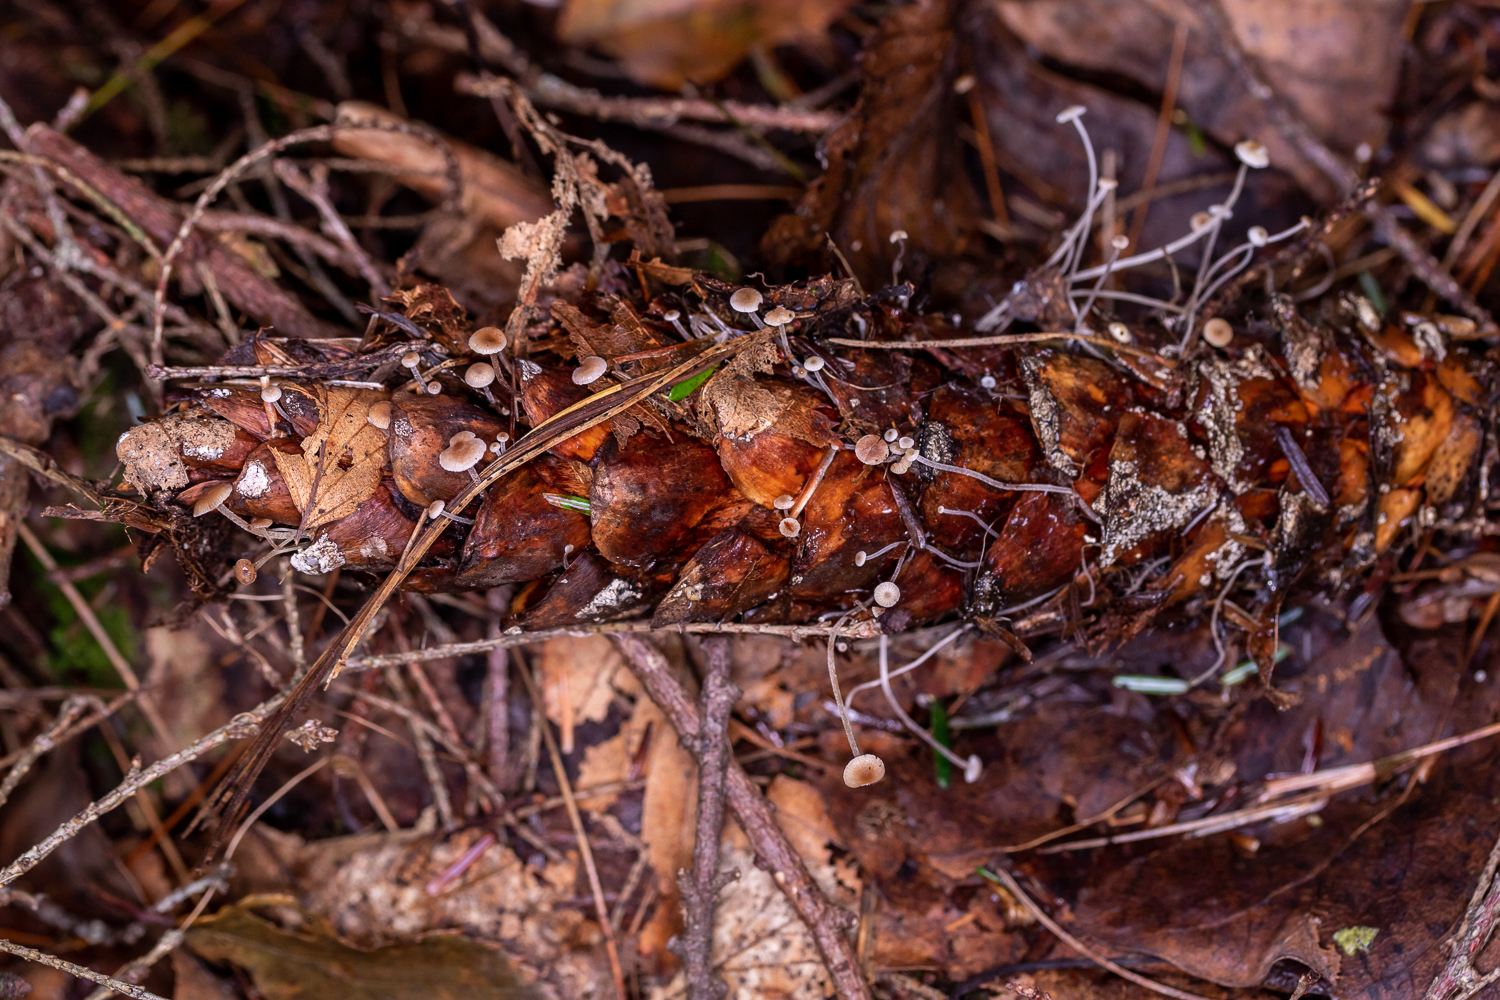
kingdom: Fungi
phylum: Basidiomycota
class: Agaricomycetes
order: Agaricales
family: Marasmiaceae
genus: Baeospora
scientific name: Baeospora myosura
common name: Conifercone cap
